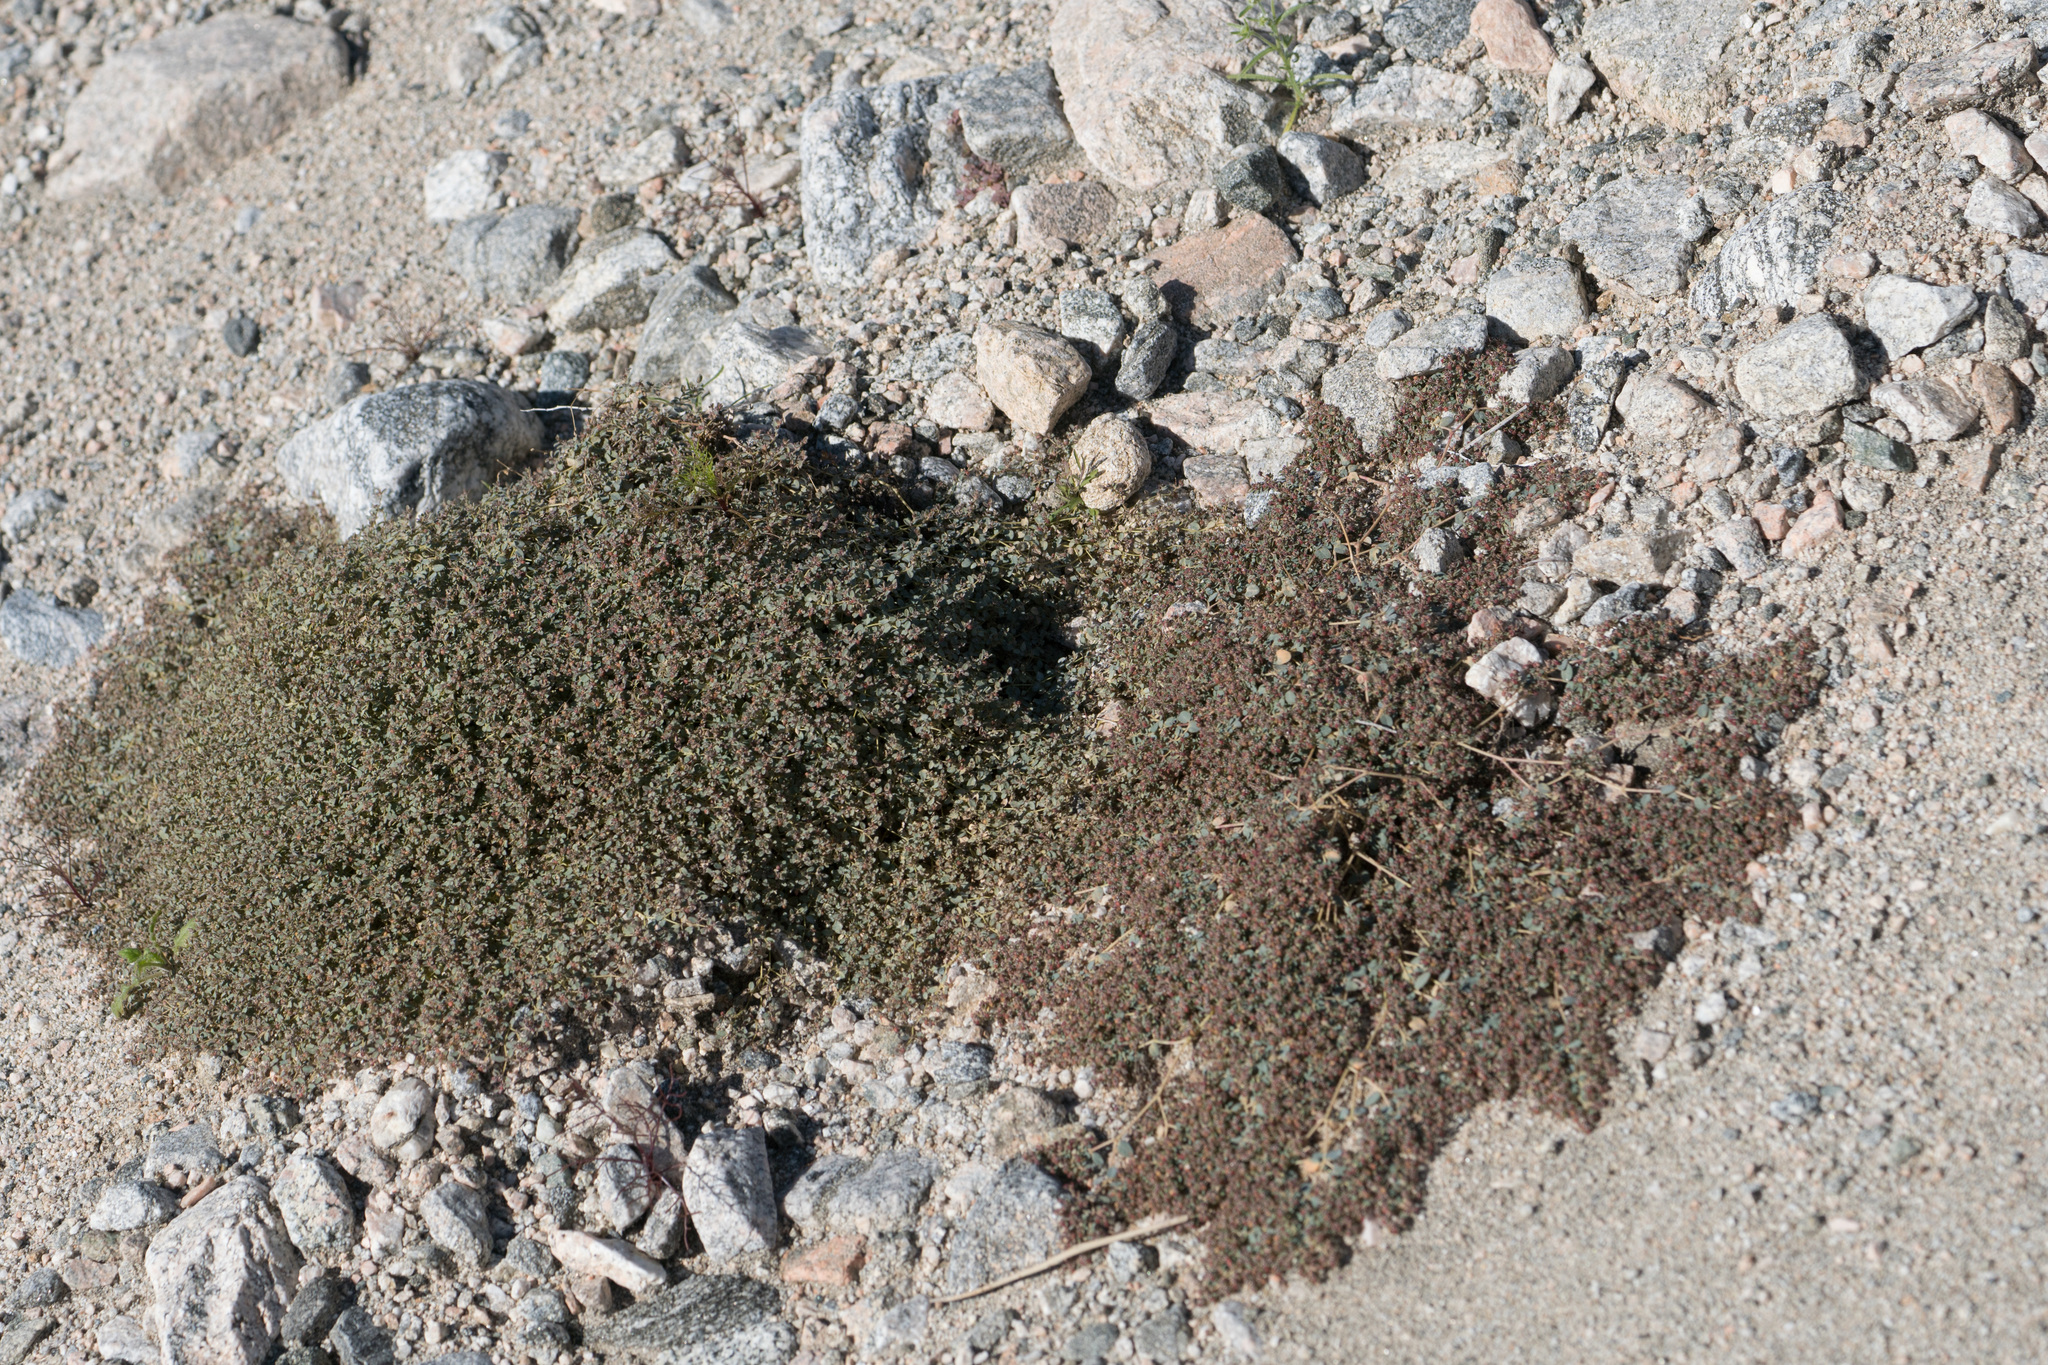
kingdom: Plantae
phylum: Tracheophyta
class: Magnoliopsida
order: Malpighiales
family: Euphorbiaceae
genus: Euphorbia
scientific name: Euphorbia polycarpa
